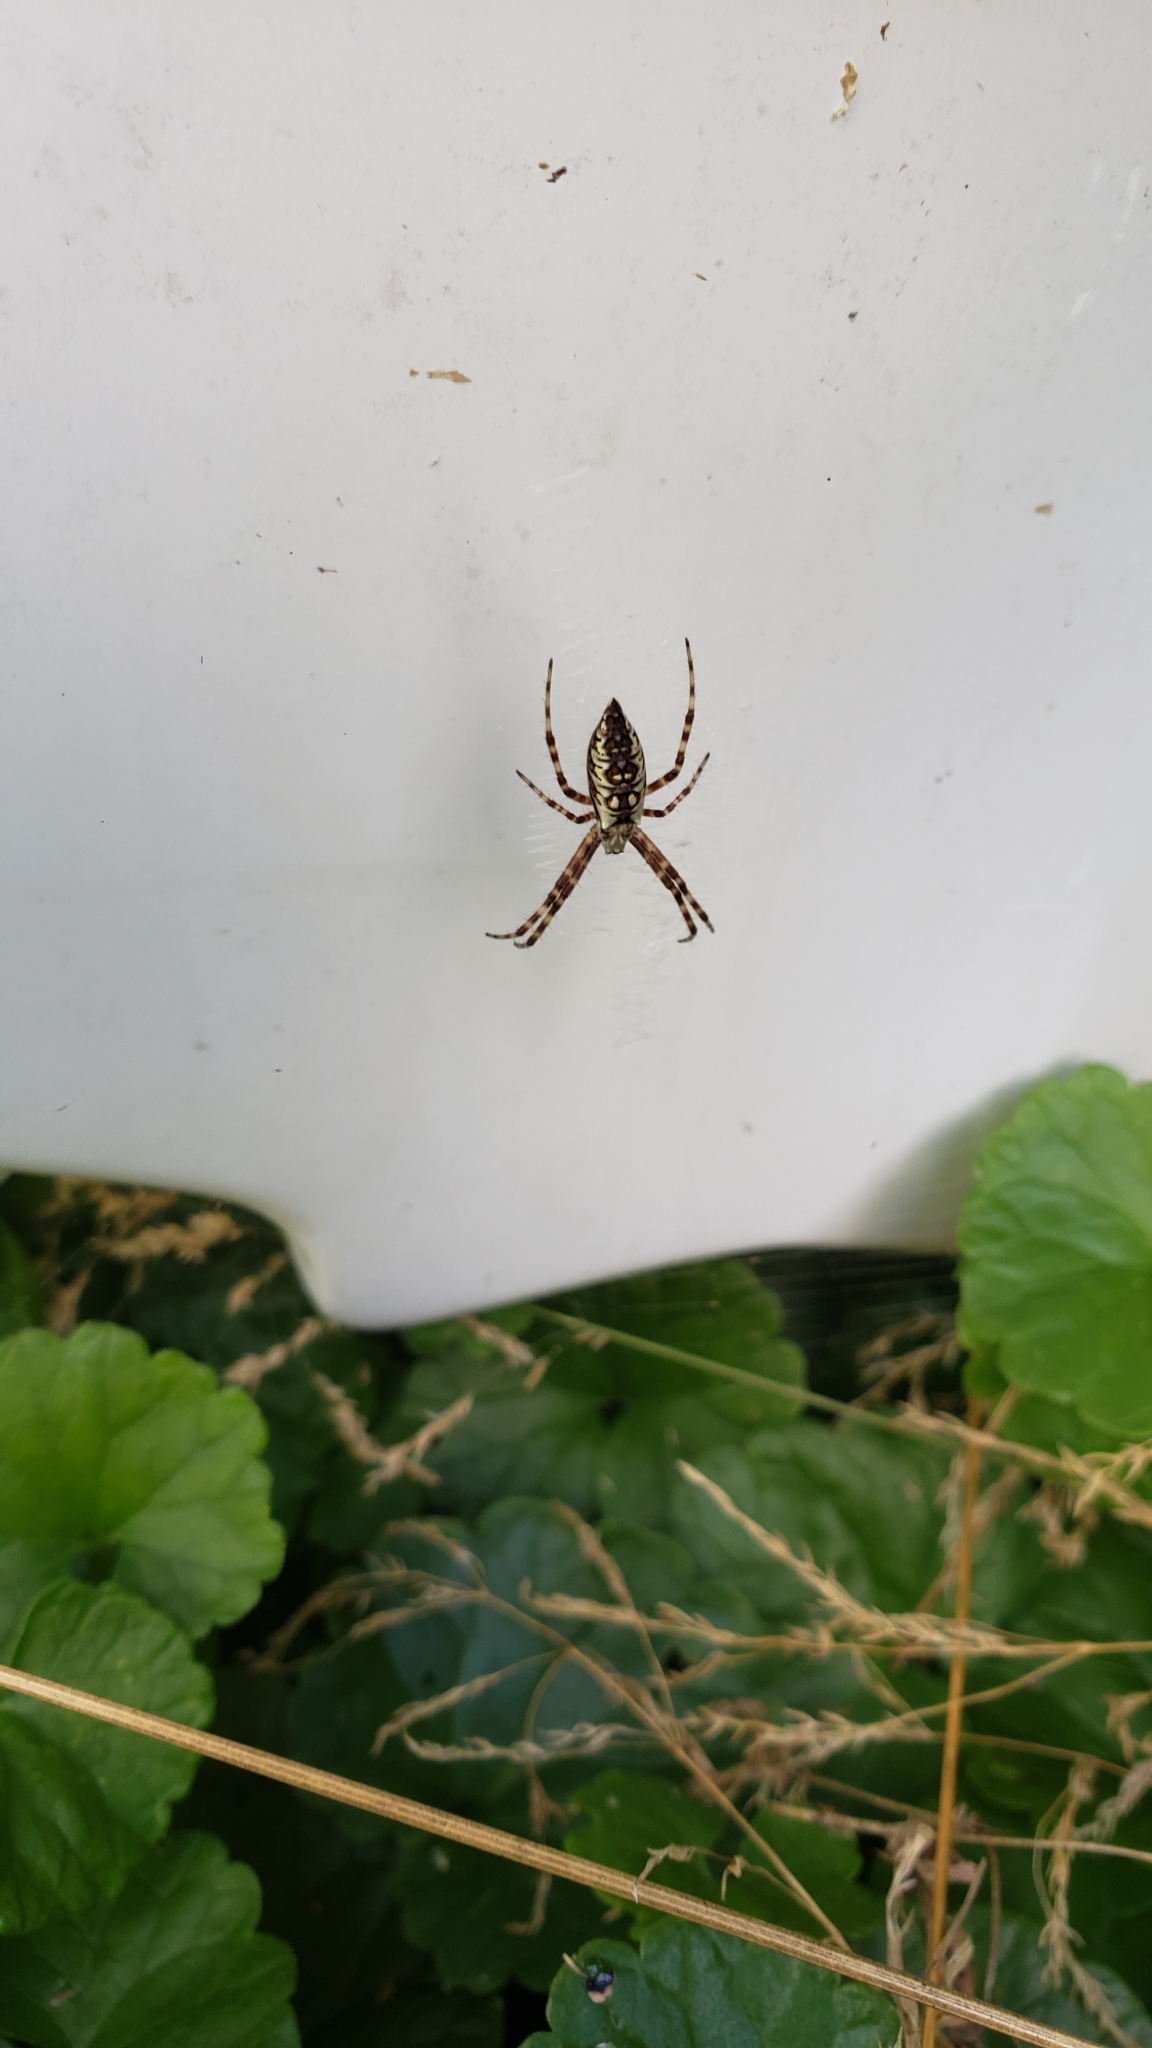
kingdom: Animalia
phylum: Arthropoda
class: Arachnida
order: Araneae
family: Araneidae
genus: Argiope
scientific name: Argiope aurantia
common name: Orb weavers
